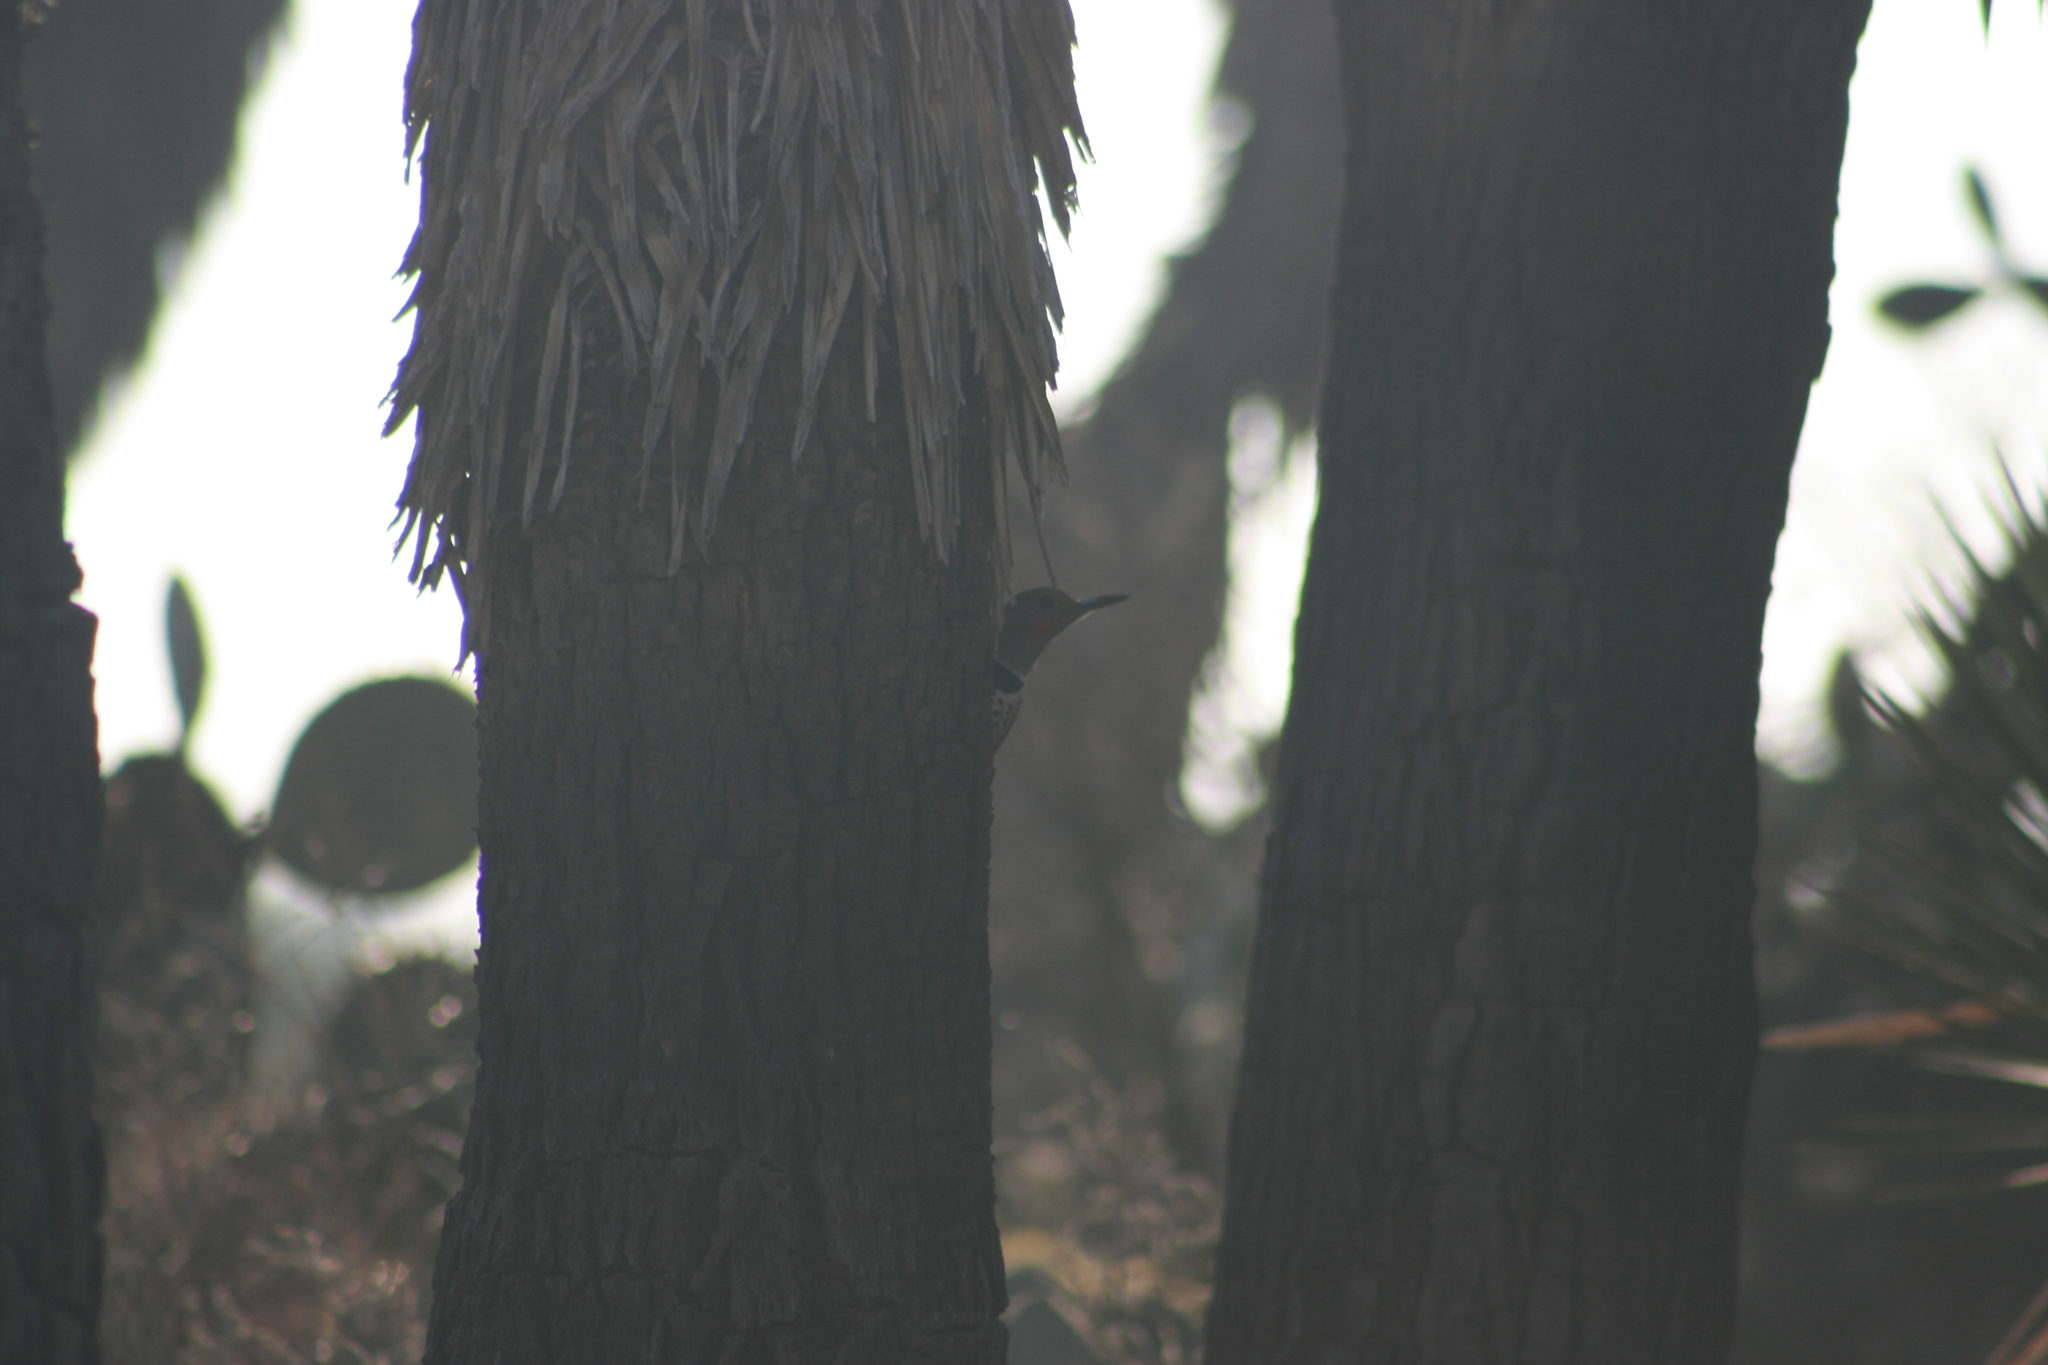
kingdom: Animalia
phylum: Chordata
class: Aves
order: Piciformes
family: Picidae
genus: Colaptes
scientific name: Colaptes auratus
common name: Northern flicker
